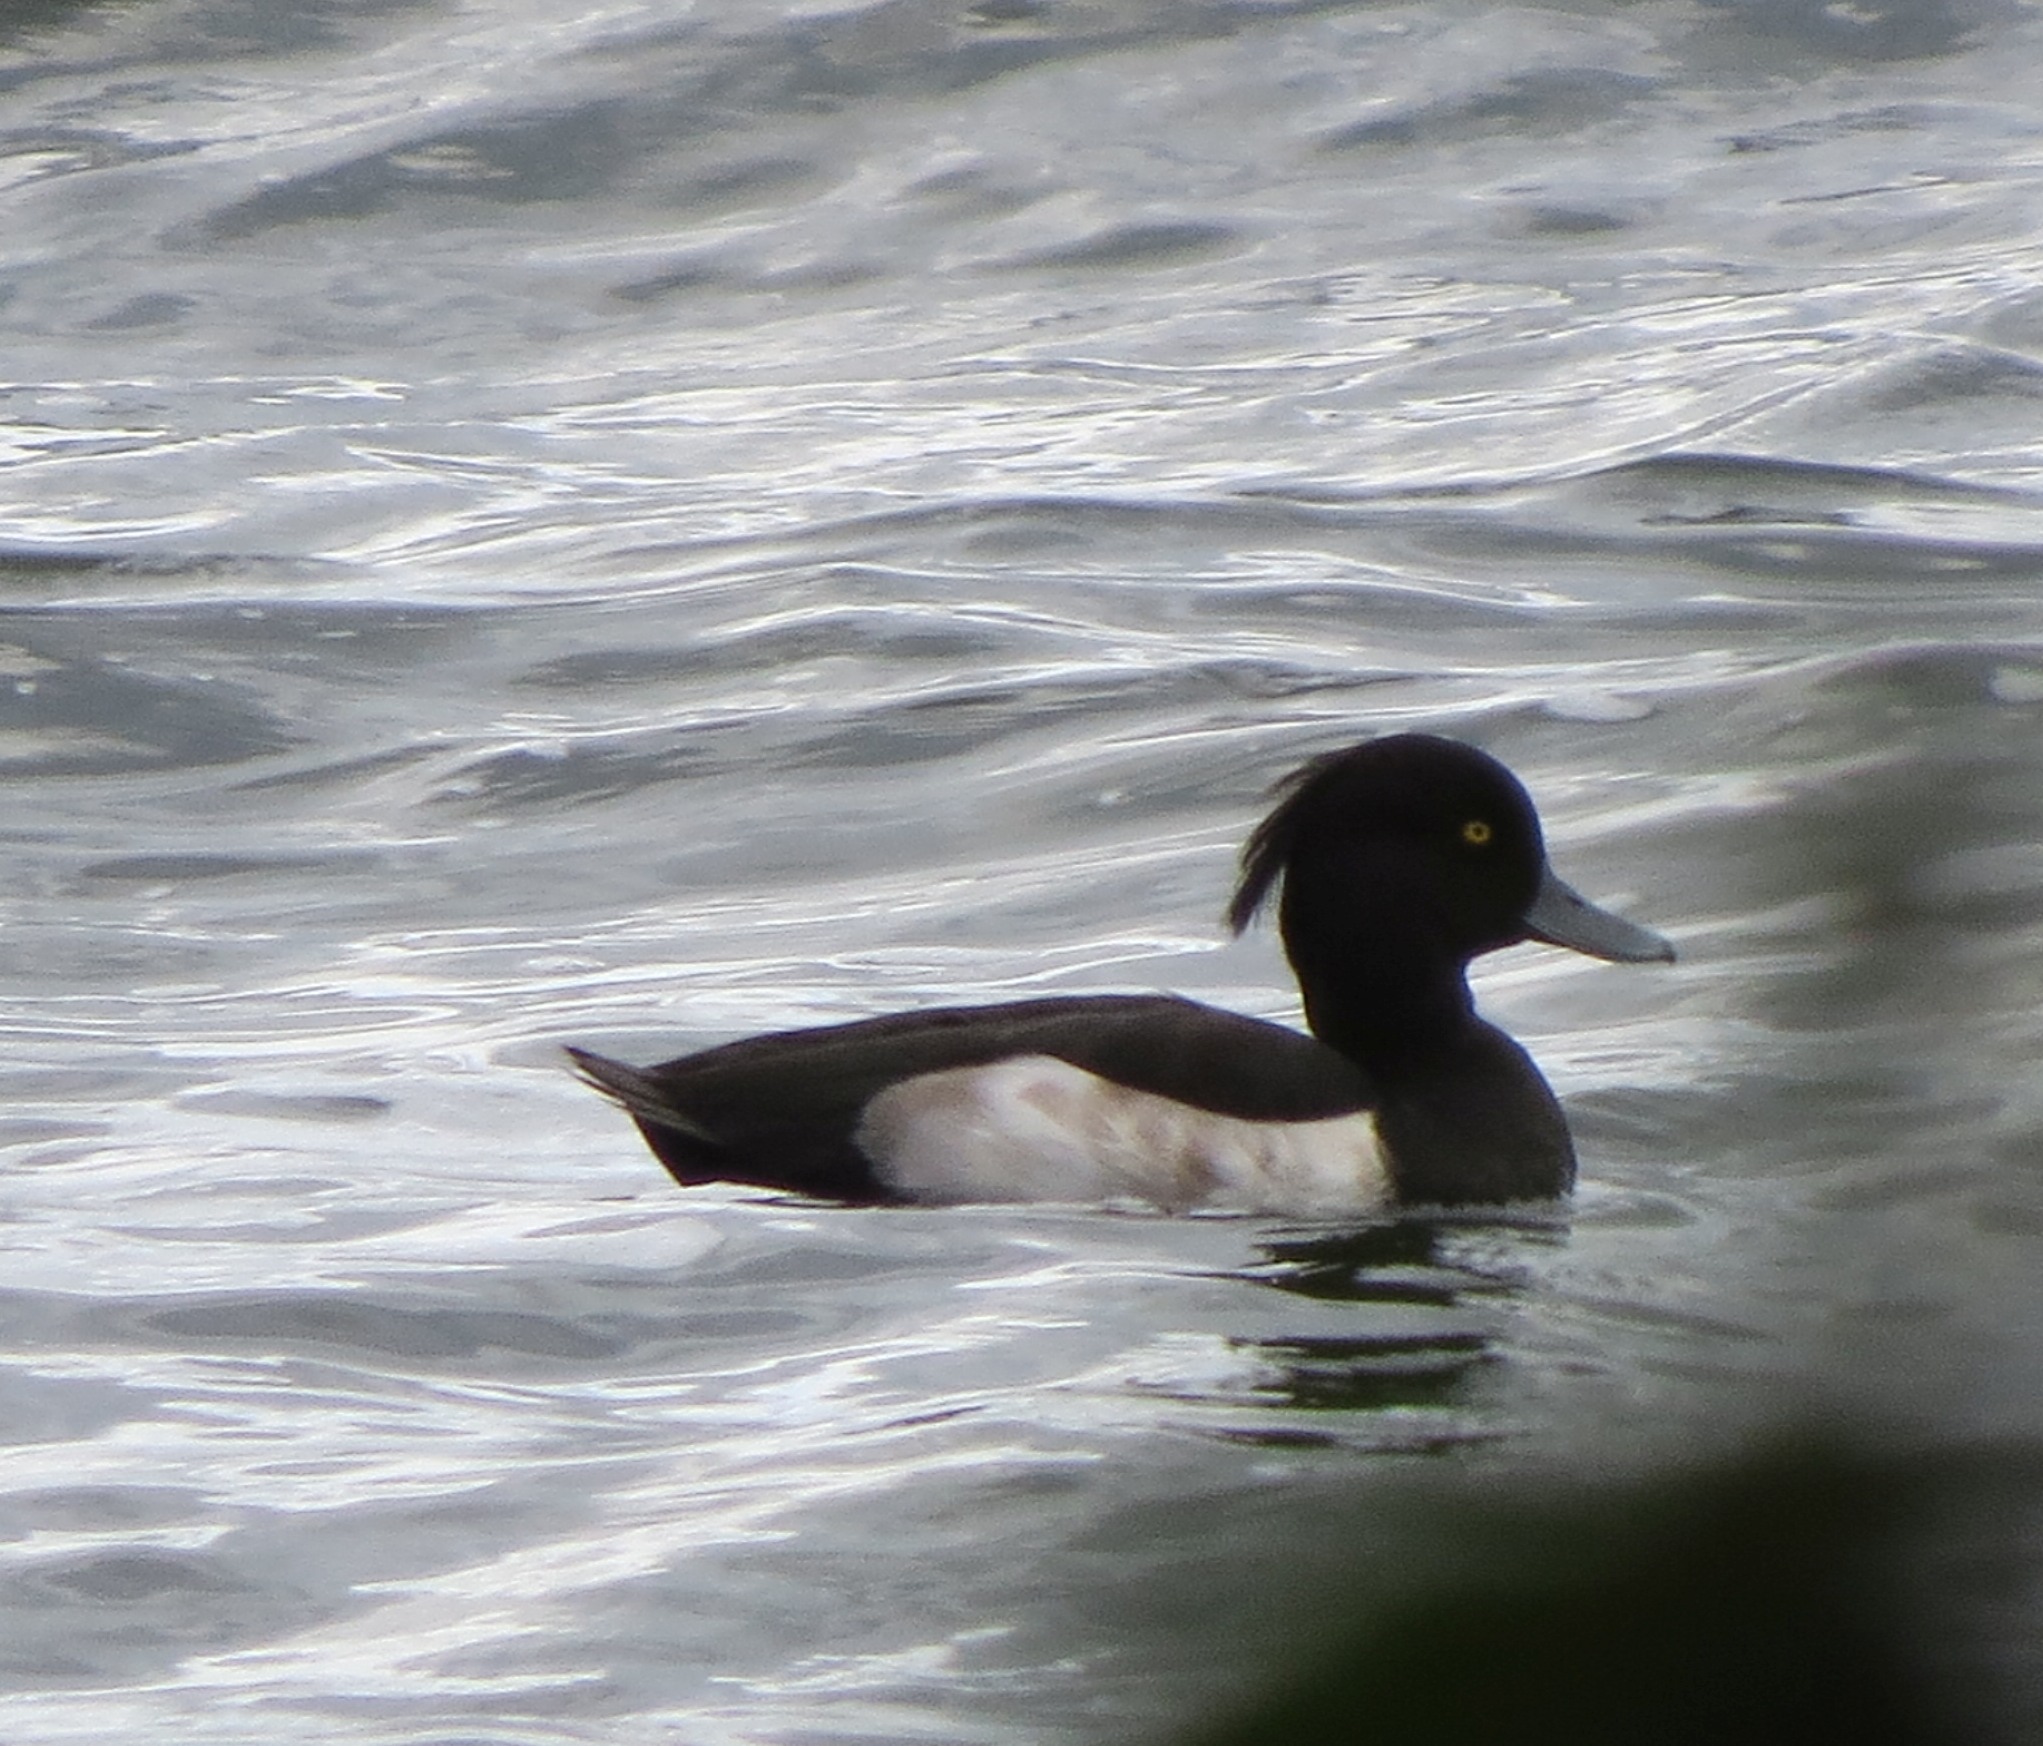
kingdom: Animalia
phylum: Chordata
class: Aves
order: Anseriformes
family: Anatidae
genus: Aythya
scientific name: Aythya fuligula
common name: Tufted duck
